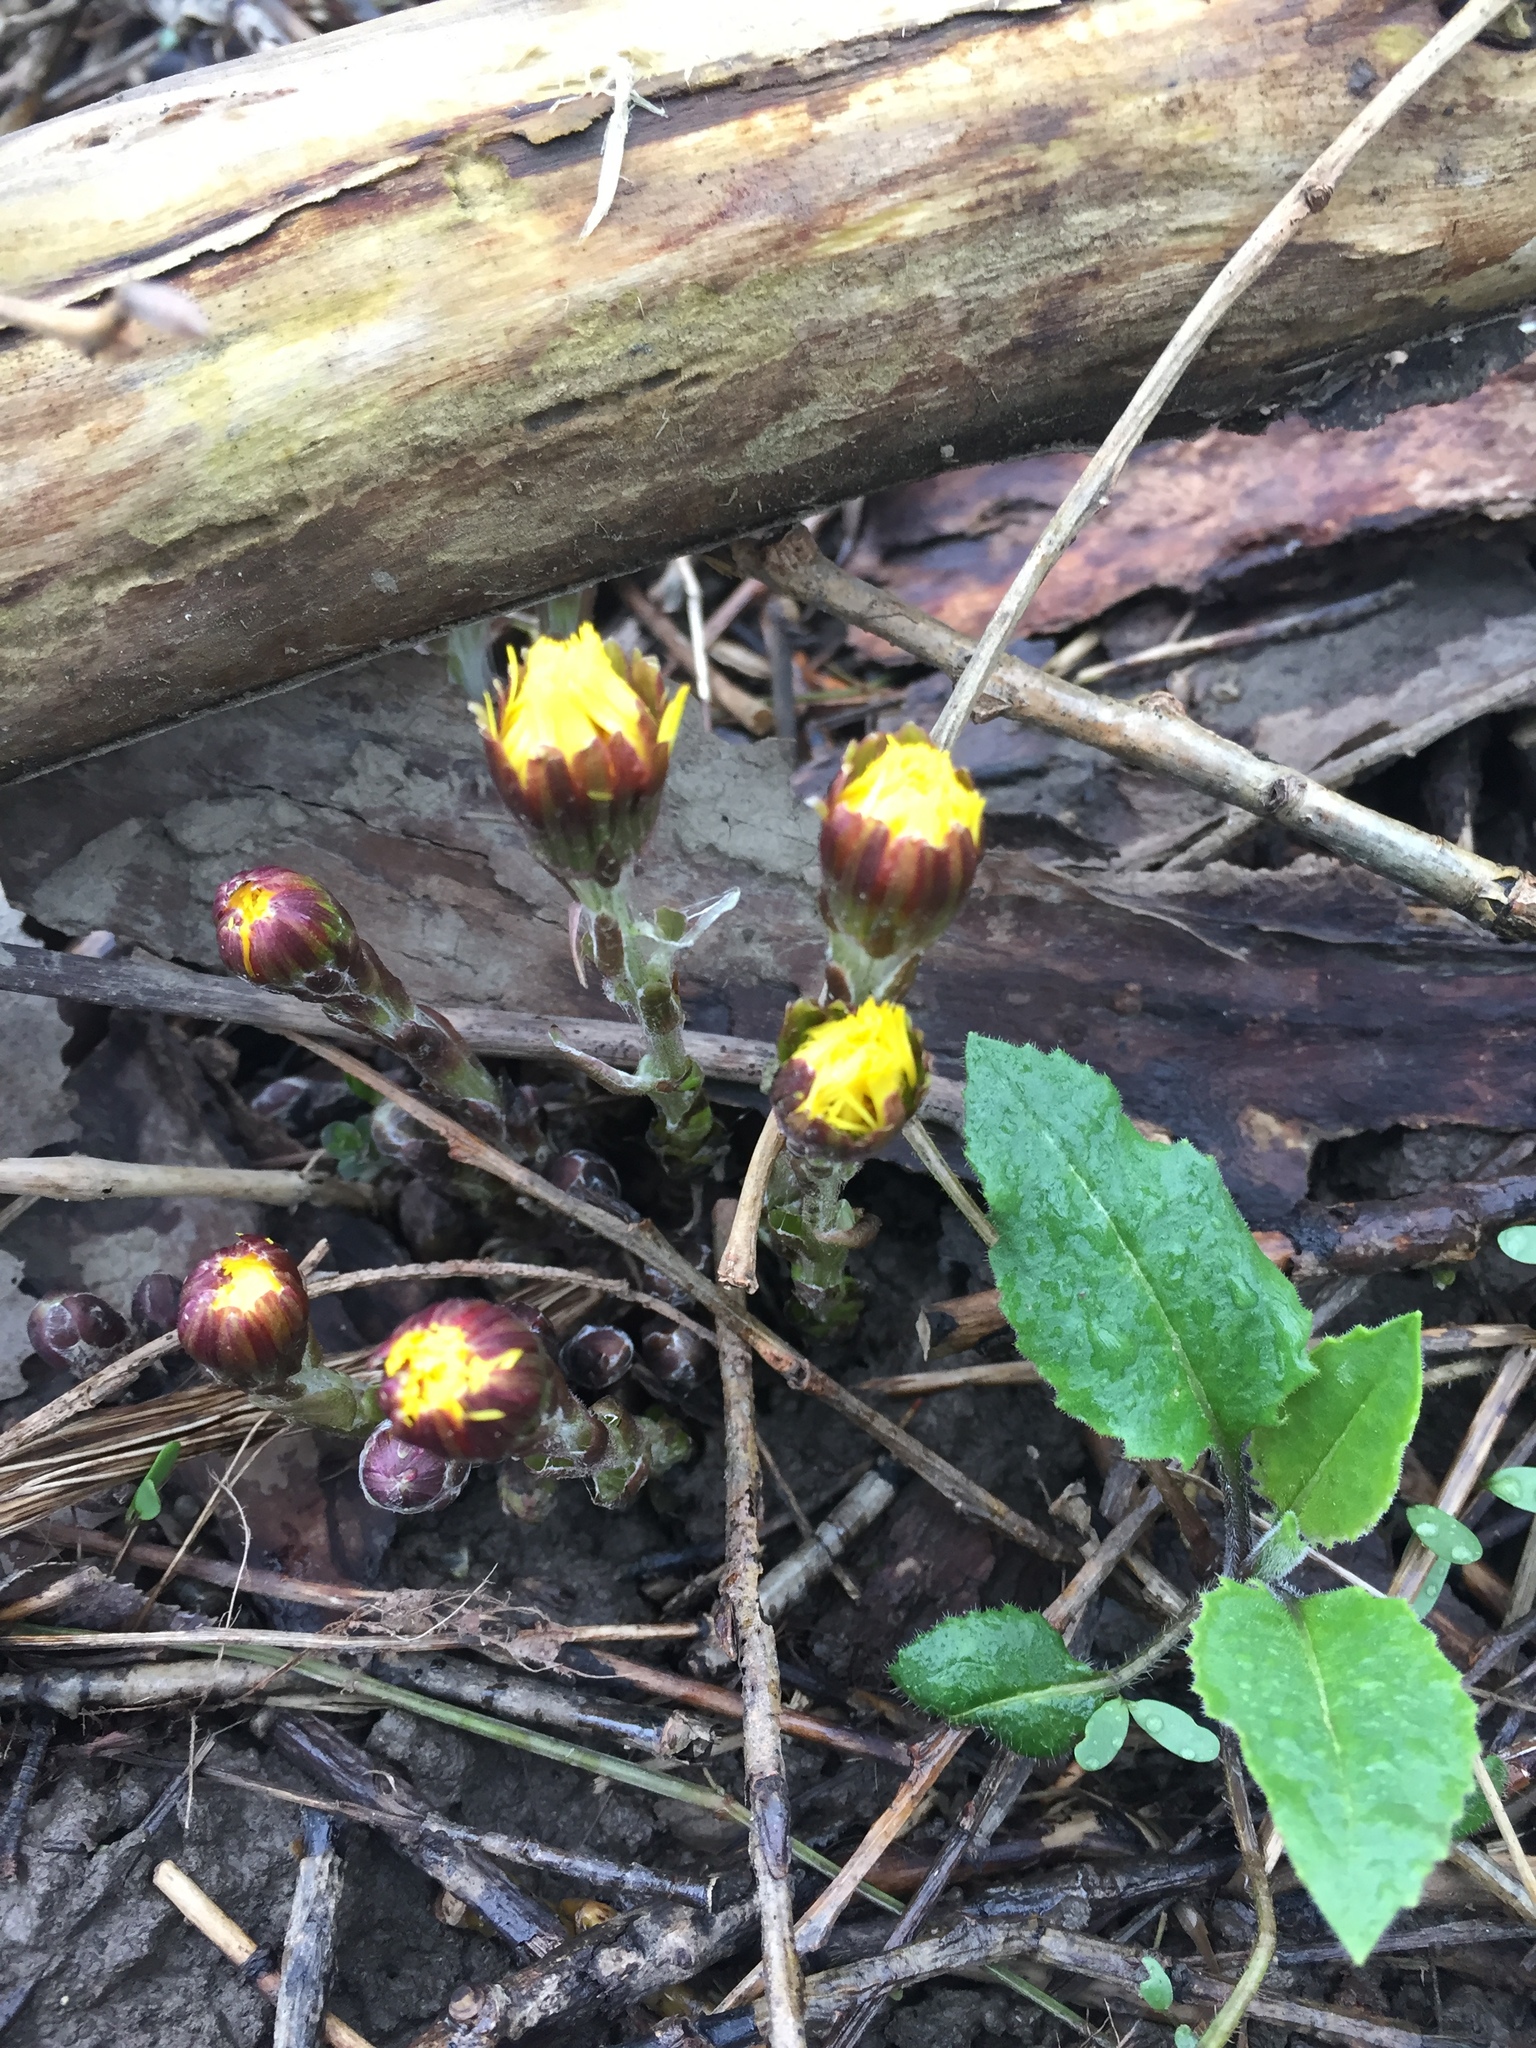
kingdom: Plantae
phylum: Tracheophyta
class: Magnoliopsida
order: Asterales
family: Asteraceae
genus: Tussilago
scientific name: Tussilago farfara
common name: Coltsfoot
